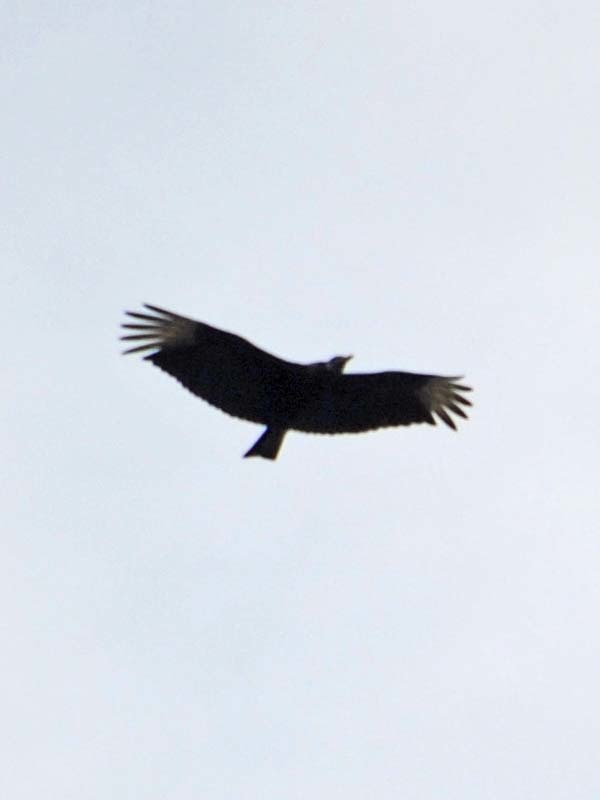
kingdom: Animalia
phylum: Chordata
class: Aves
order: Accipitriformes
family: Cathartidae
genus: Coragyps
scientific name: Coragyps atratus
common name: Black vulture
